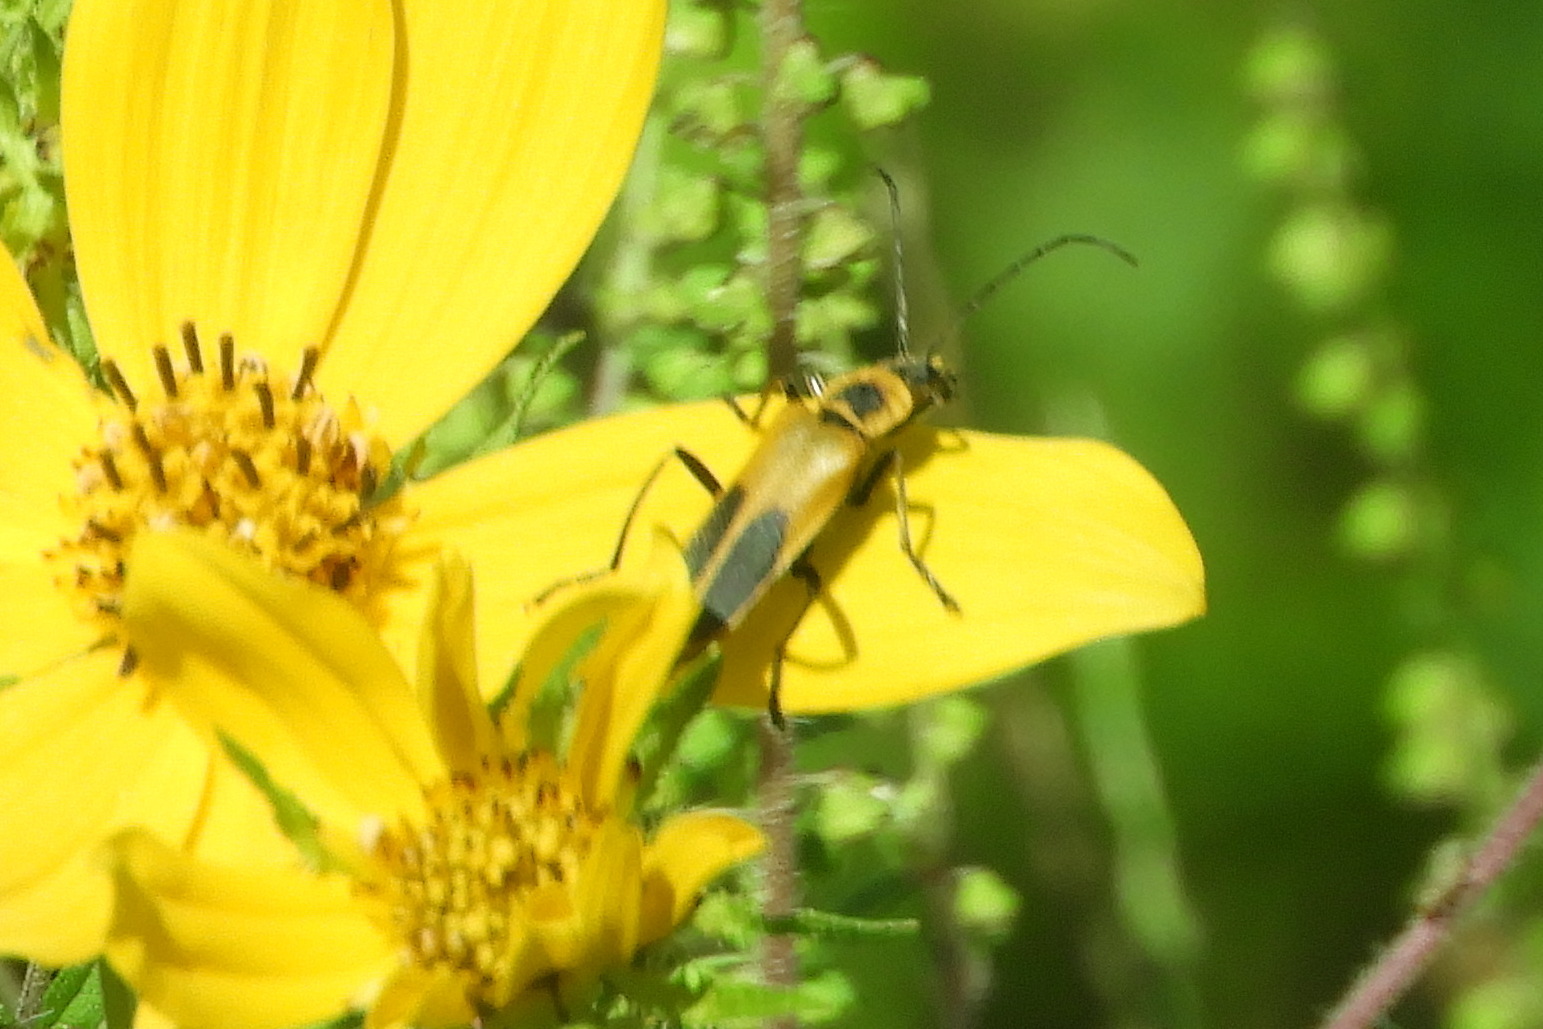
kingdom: Animalia
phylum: Arthropoda
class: Insecta
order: Coleoptera
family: Cantharidae
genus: Chauliognathus
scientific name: Chauliognathus pensylvanicus
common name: Goldenrod soldier beetle
